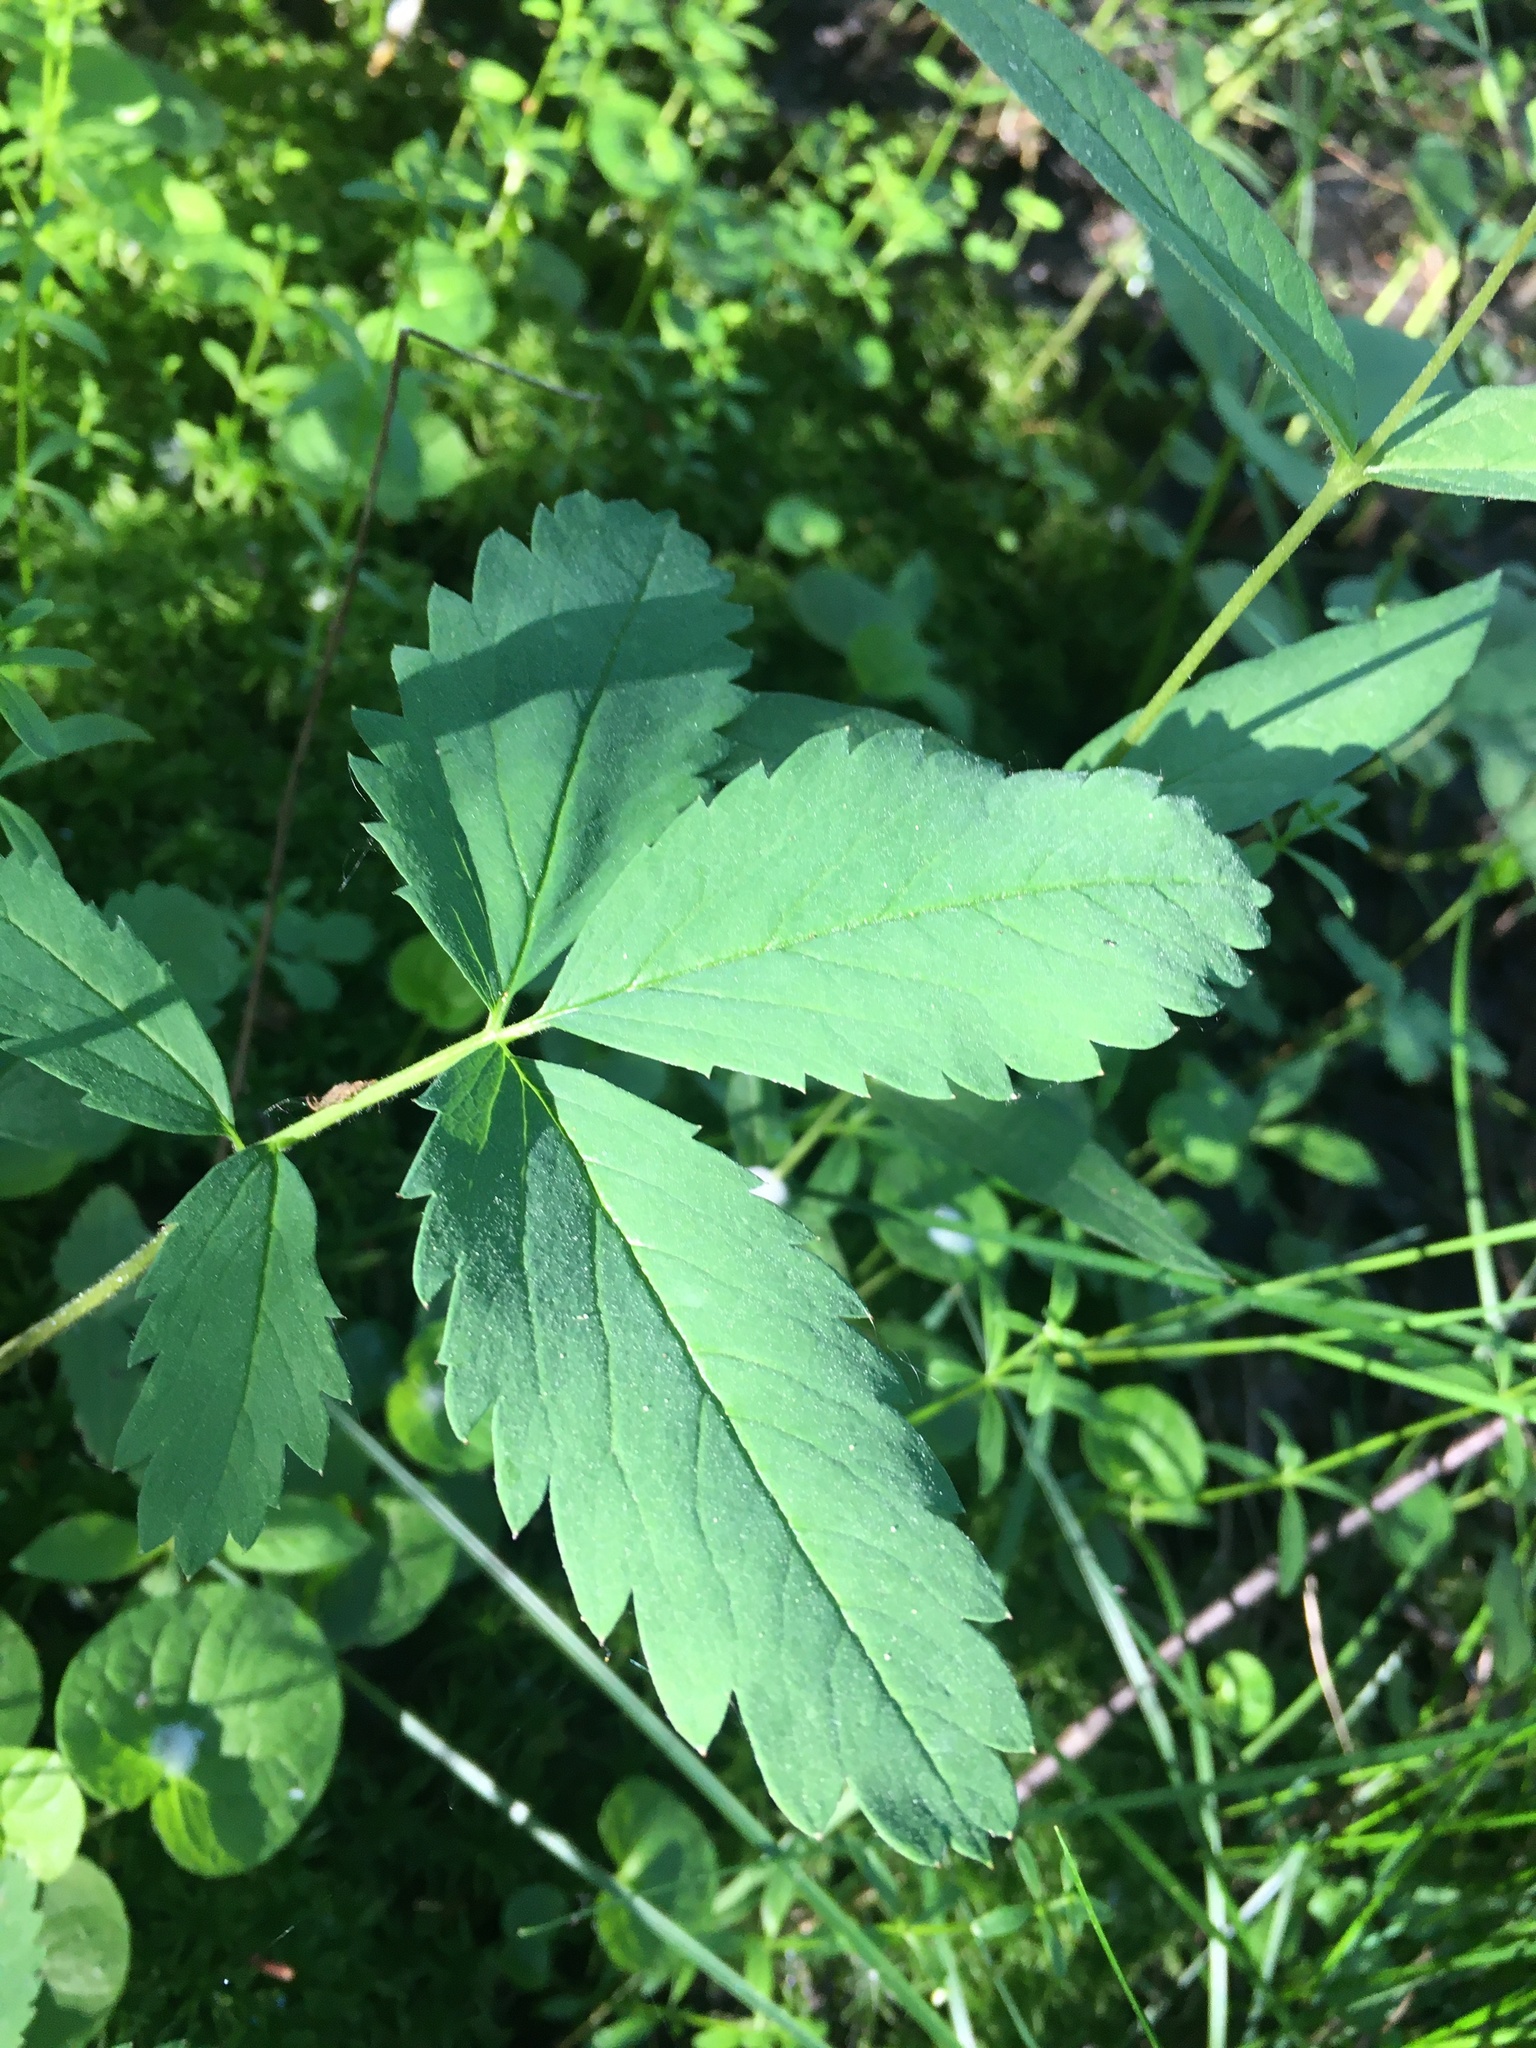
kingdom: Plantae
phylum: Tracheophyta
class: Magnoliopsida
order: Rosales
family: Rosaceae
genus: Comarum
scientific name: Comarum palustre
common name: Marsh cinquefoil
